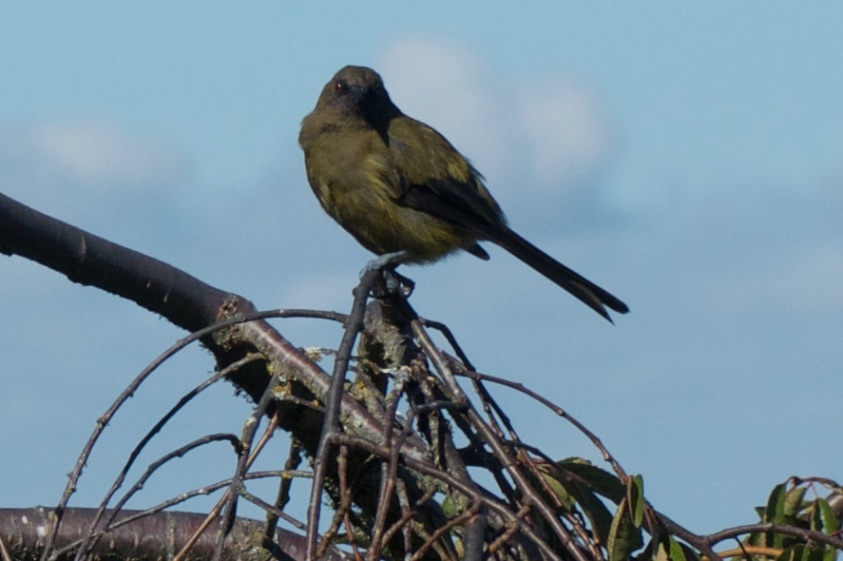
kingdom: Animalia
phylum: Chordata
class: Aves
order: Passeriformes
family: Meliphagidae
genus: Anthornis
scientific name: Anthornis melanura
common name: New zealand bellbird
